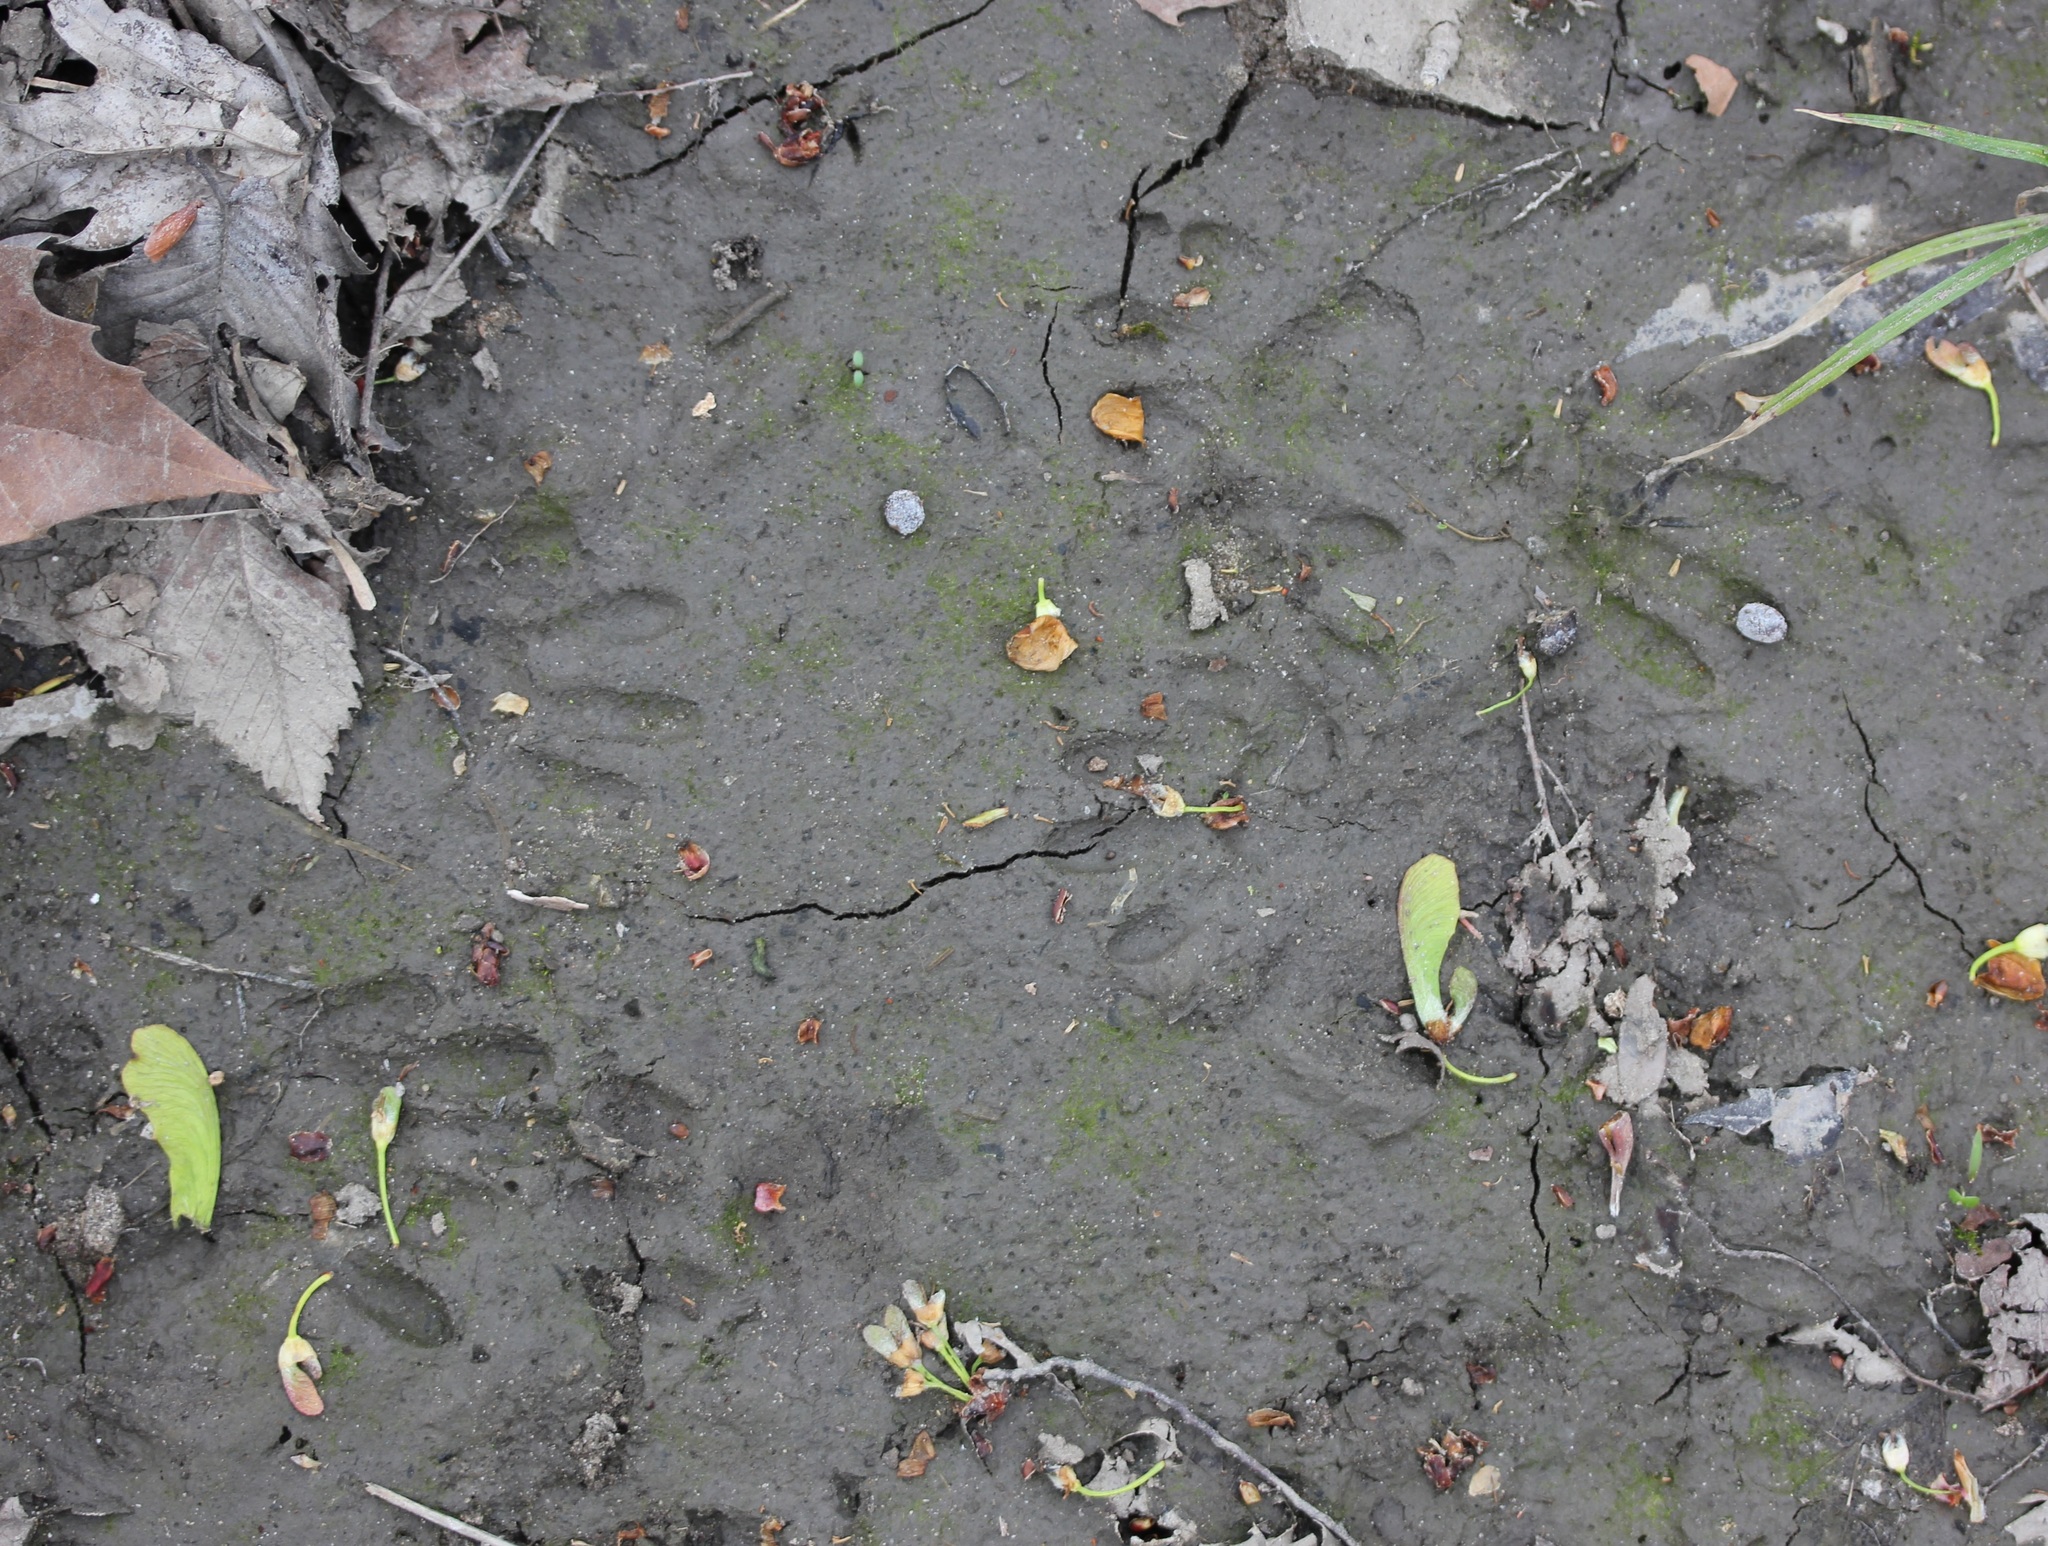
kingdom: Animalia
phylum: Chordata
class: Mammalia
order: Carnivora
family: Procyonidae
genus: Procyon
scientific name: Procyon lotor
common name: Raccoon
